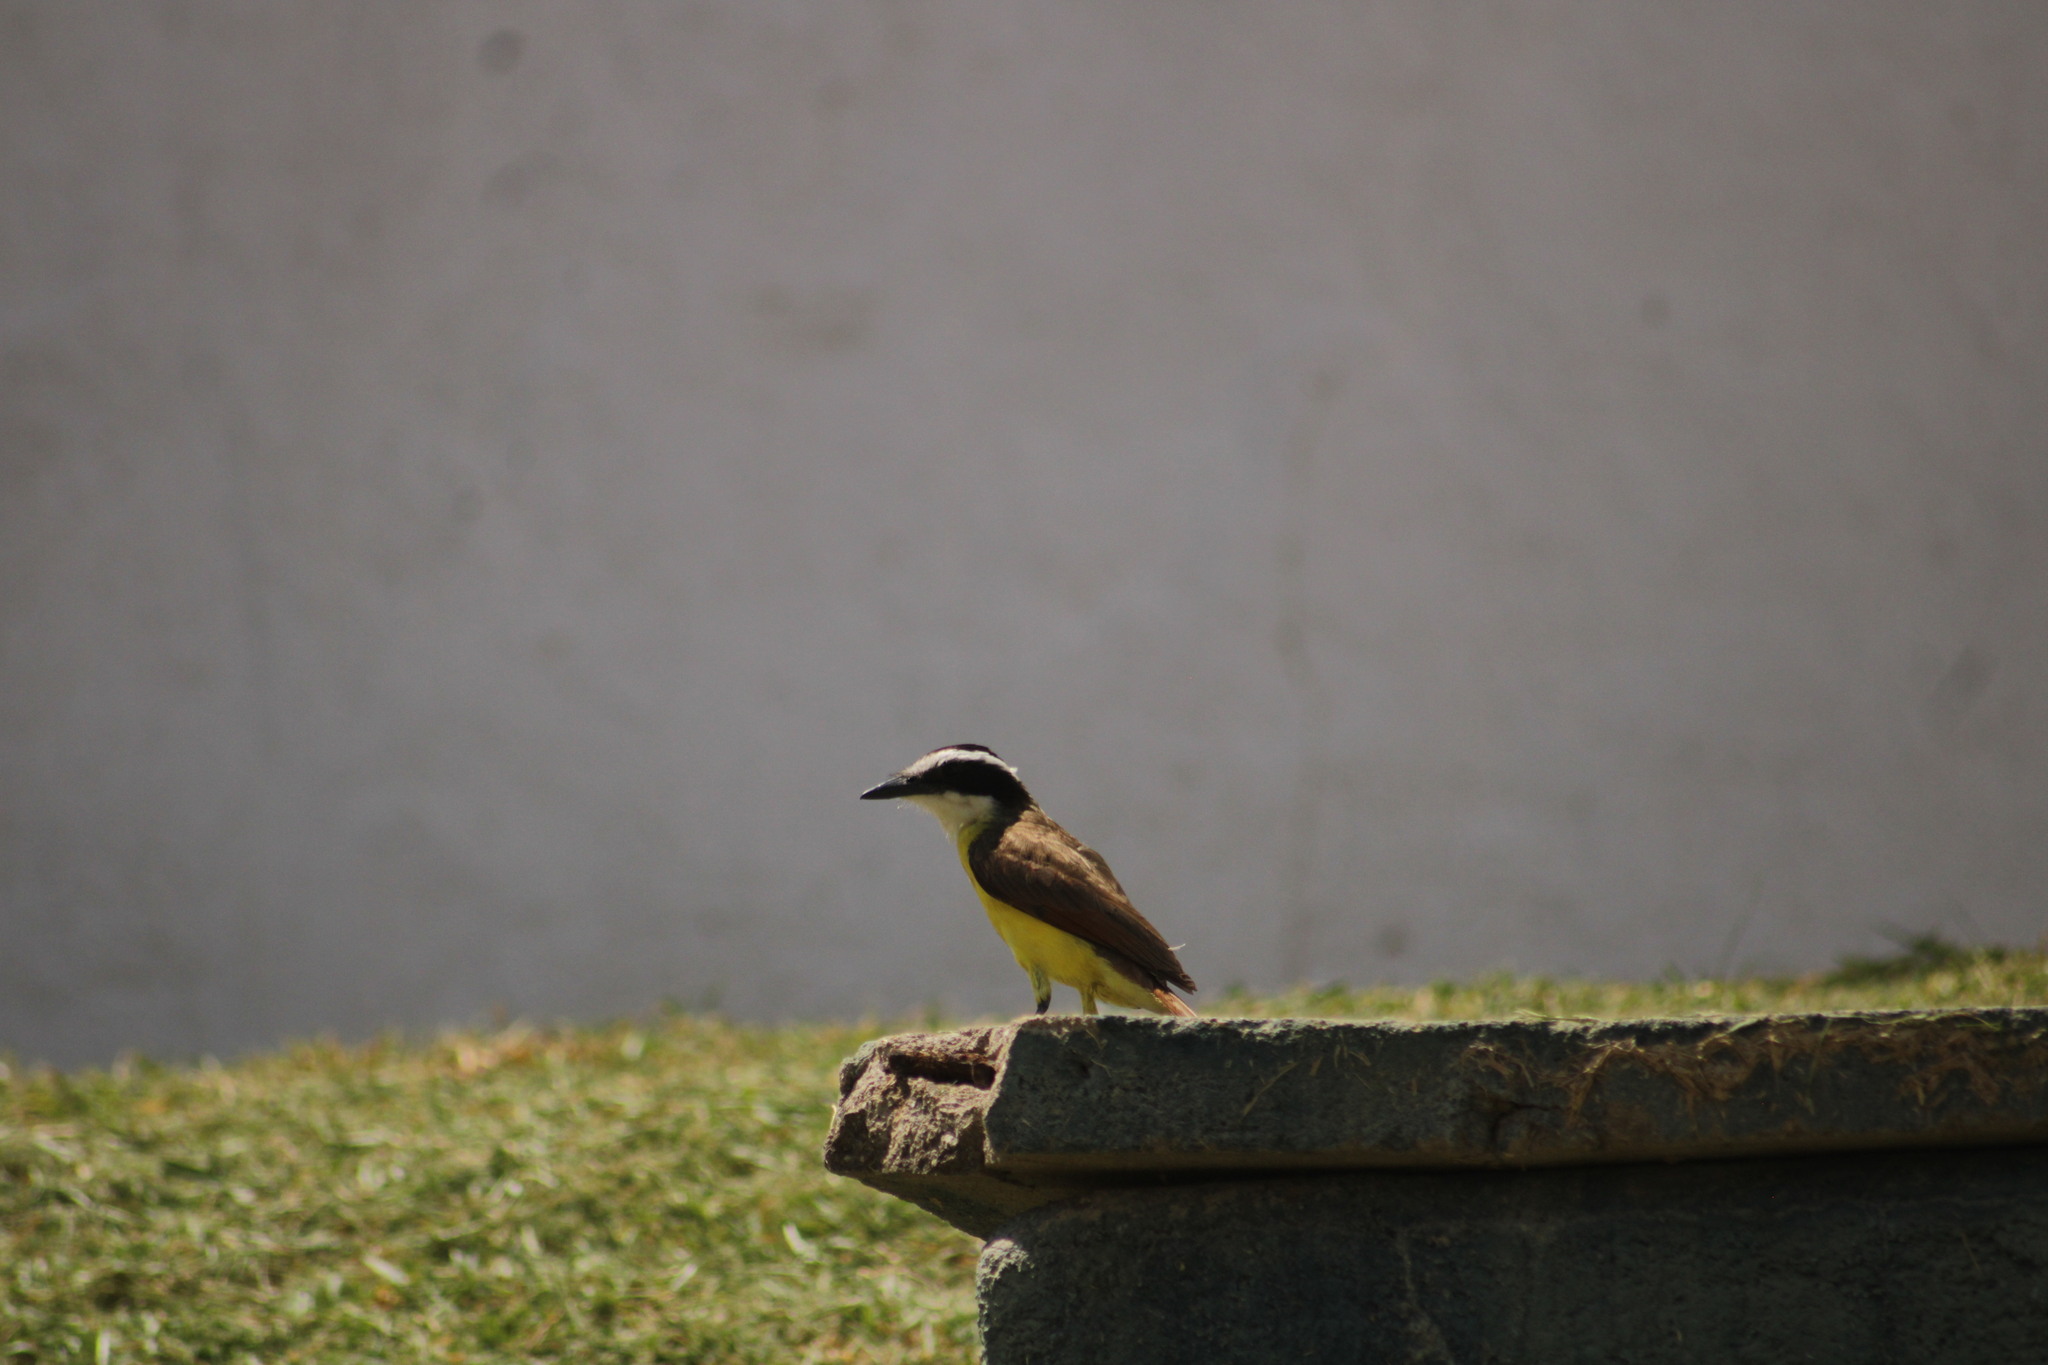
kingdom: Animalia
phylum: Chordata
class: Aves
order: Passeriformes
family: Tyrannidae
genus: Pitangus
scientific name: Pitangus sulphuratus
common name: Great kiskadee
